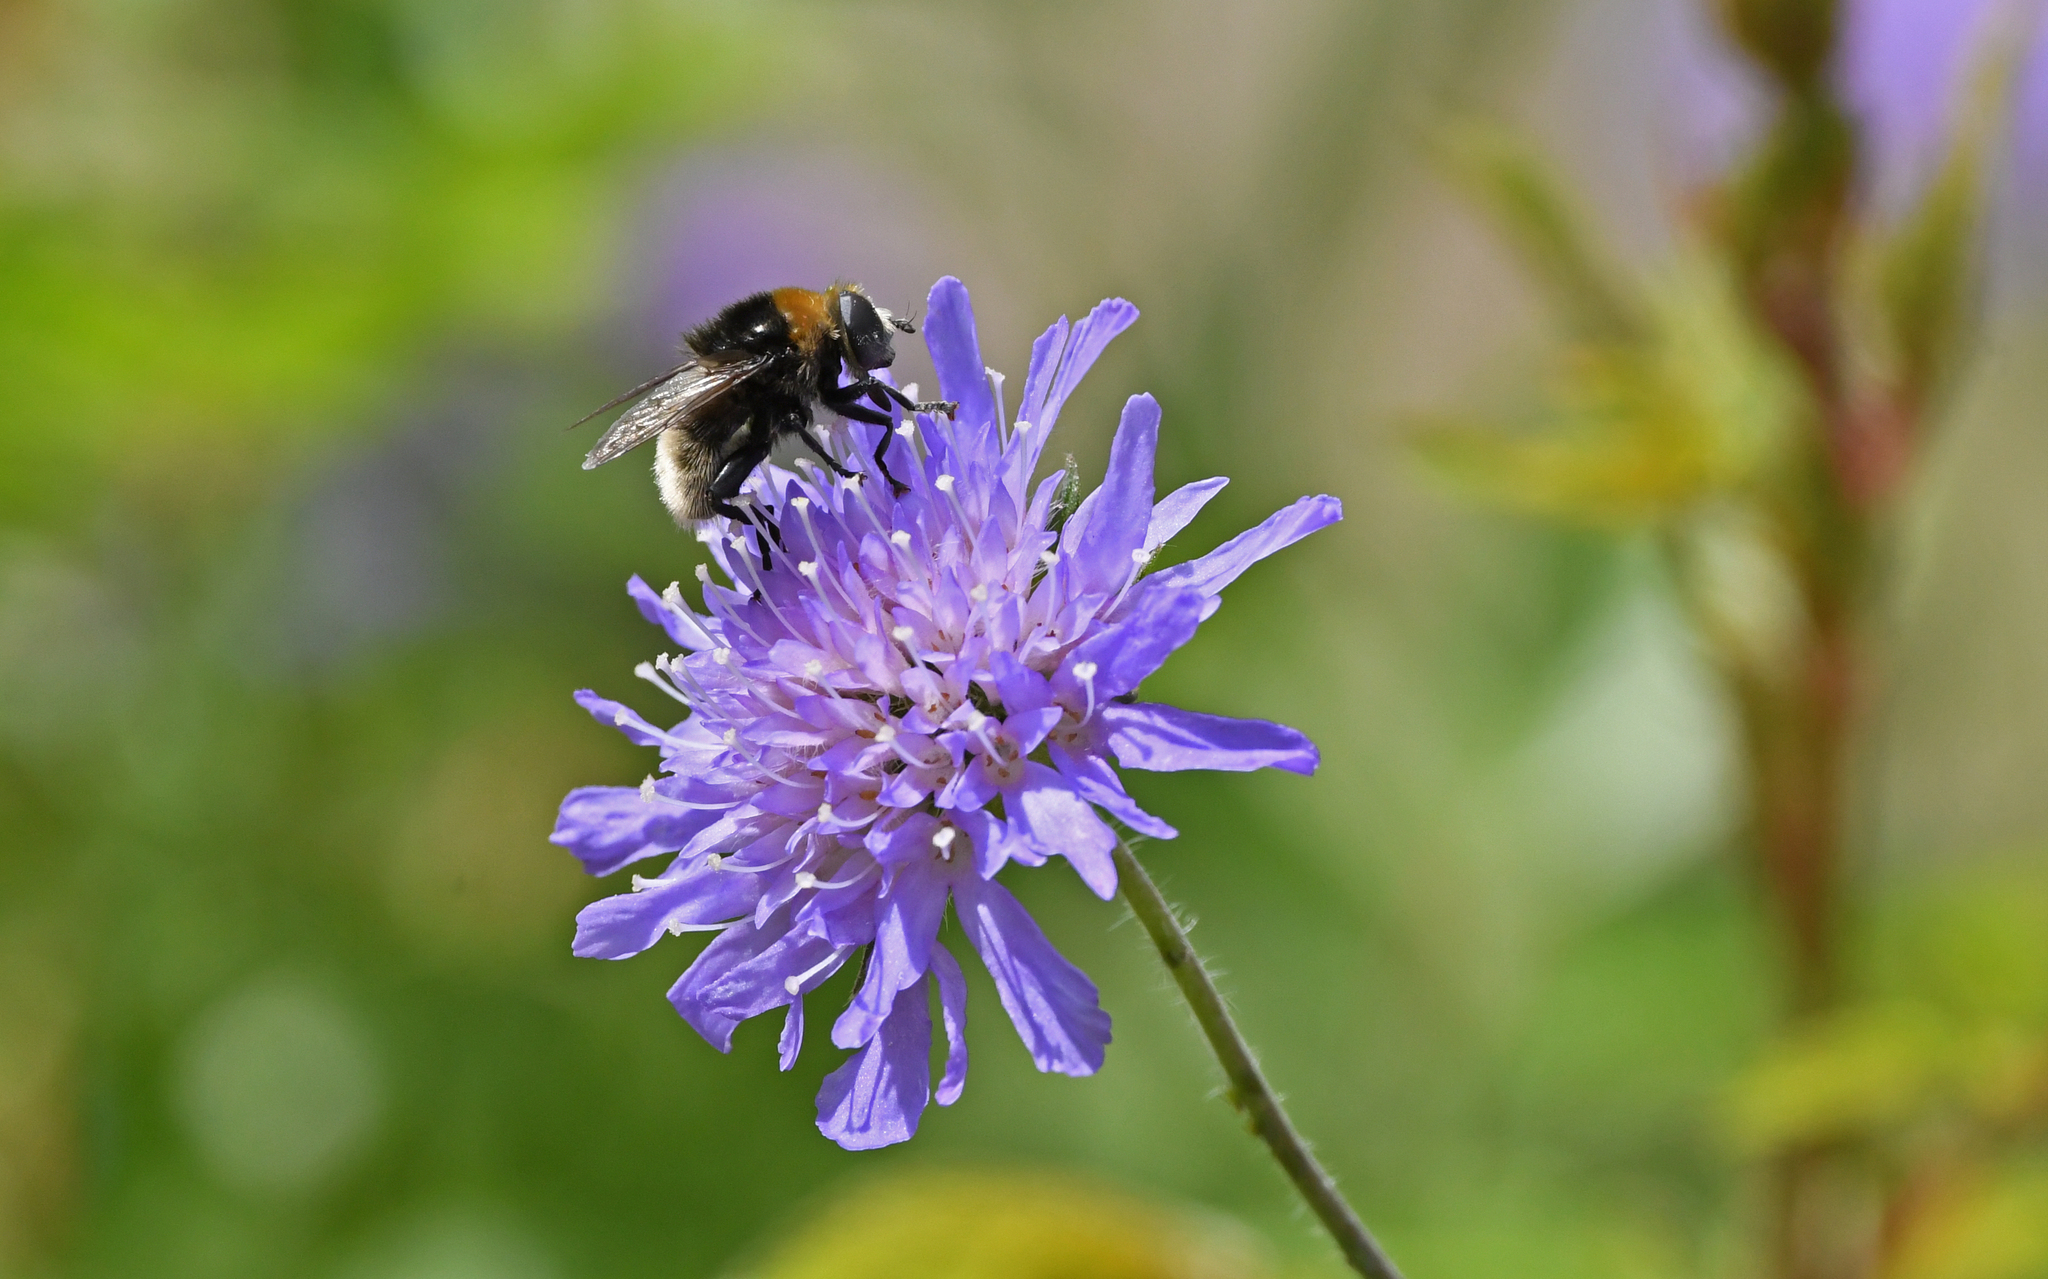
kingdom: Animalia
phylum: Arthropoda
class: Insecta
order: Diptera
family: Syrphidae
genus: Merodon
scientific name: Merodon equestris
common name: Greater bulb-fly
